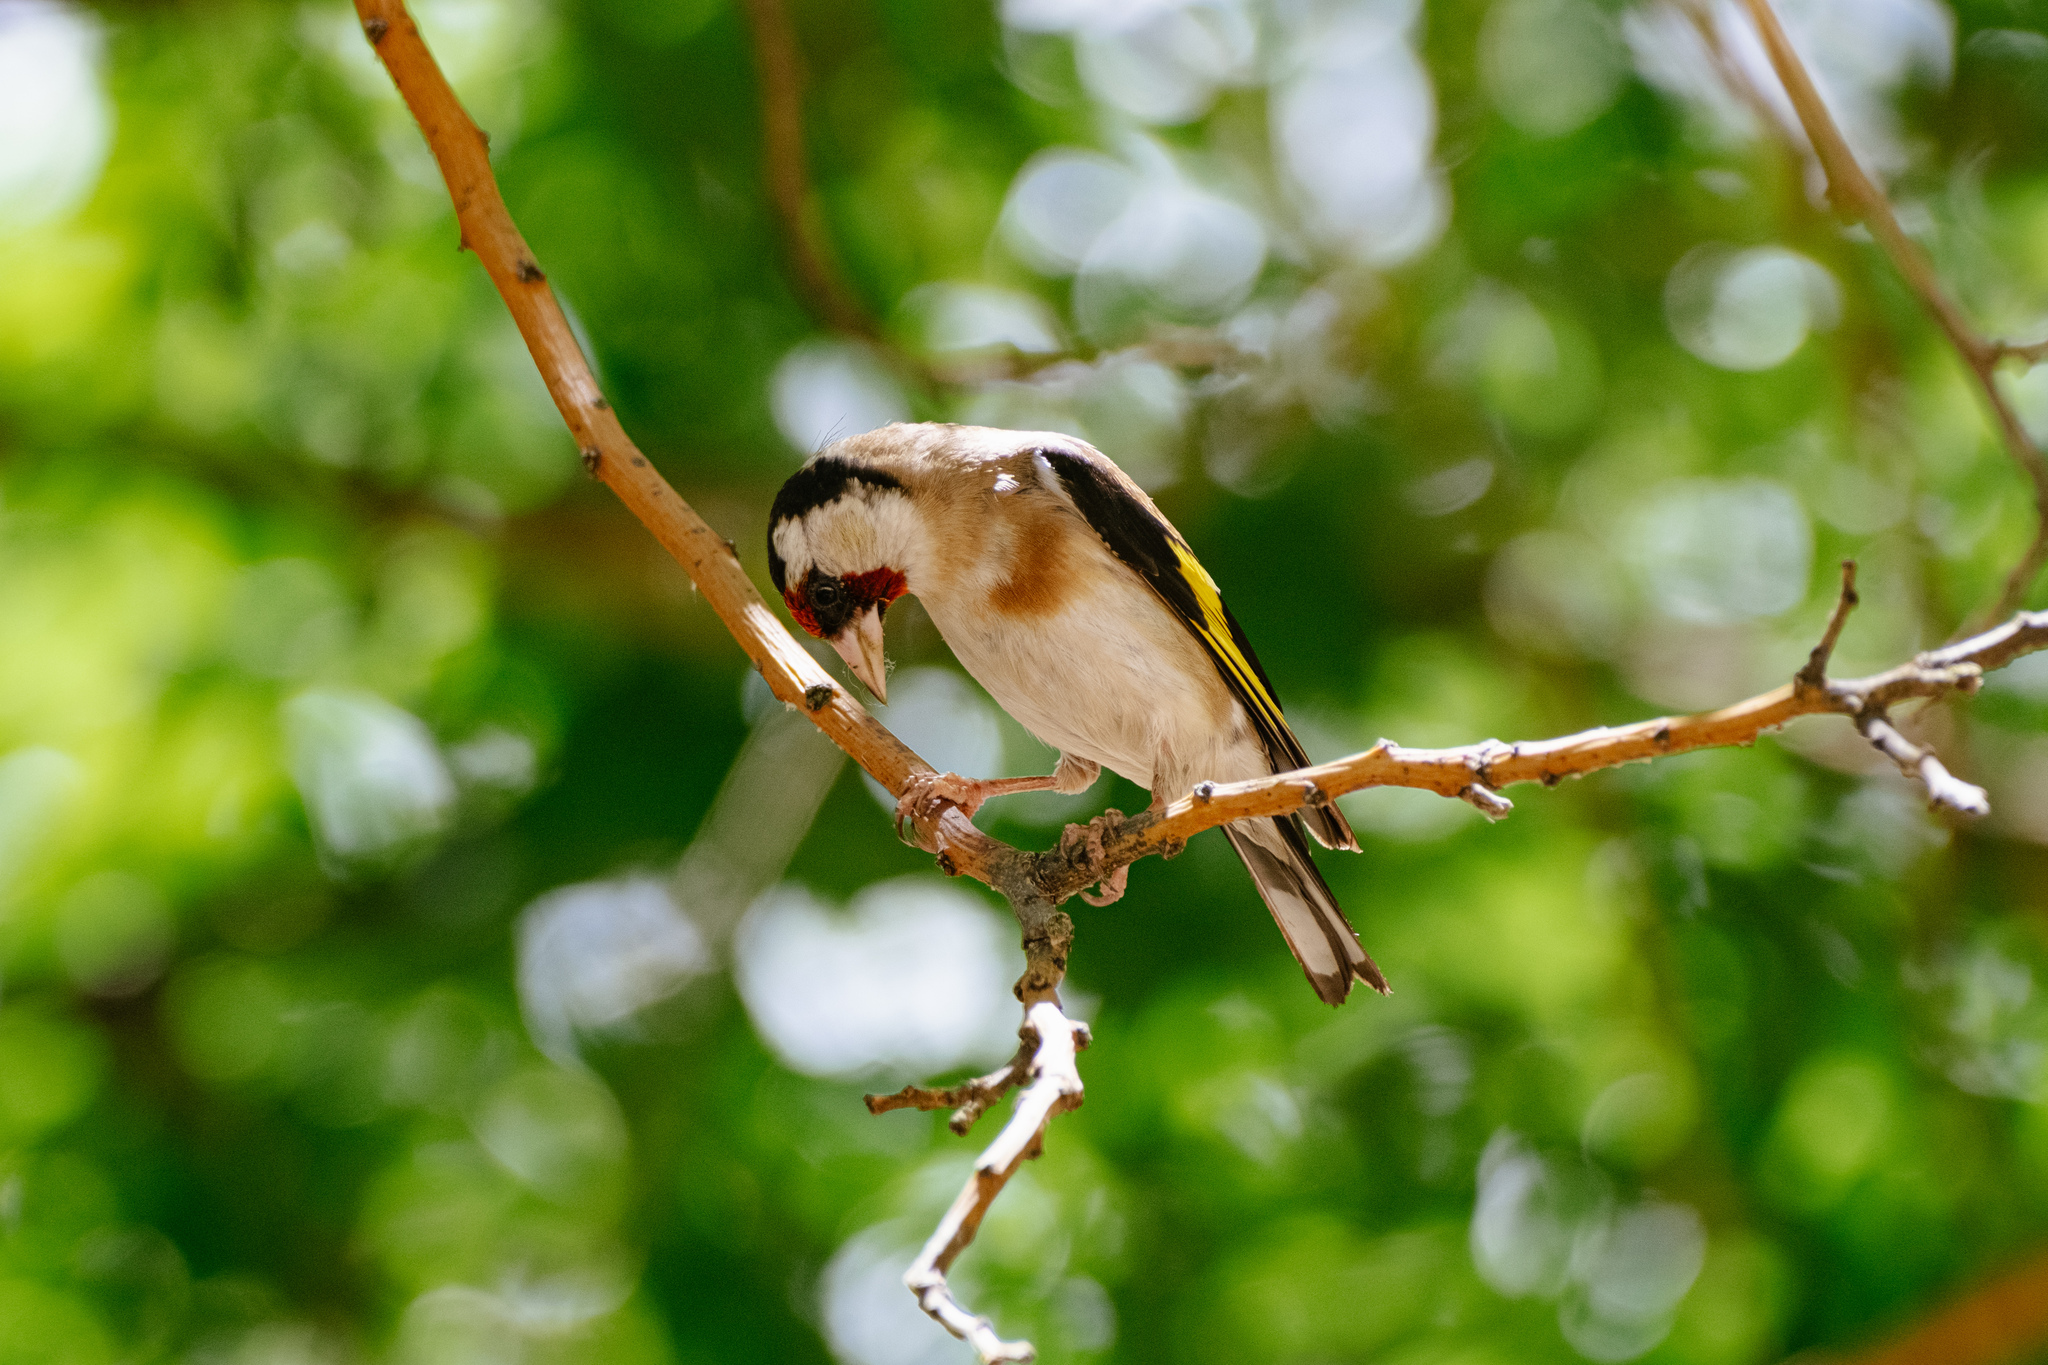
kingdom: Animalia
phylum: Chordata
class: Aves
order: Passeriformes
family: Fringillidae
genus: Carduelis
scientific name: Carduelis carduelis
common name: European goldfinch
